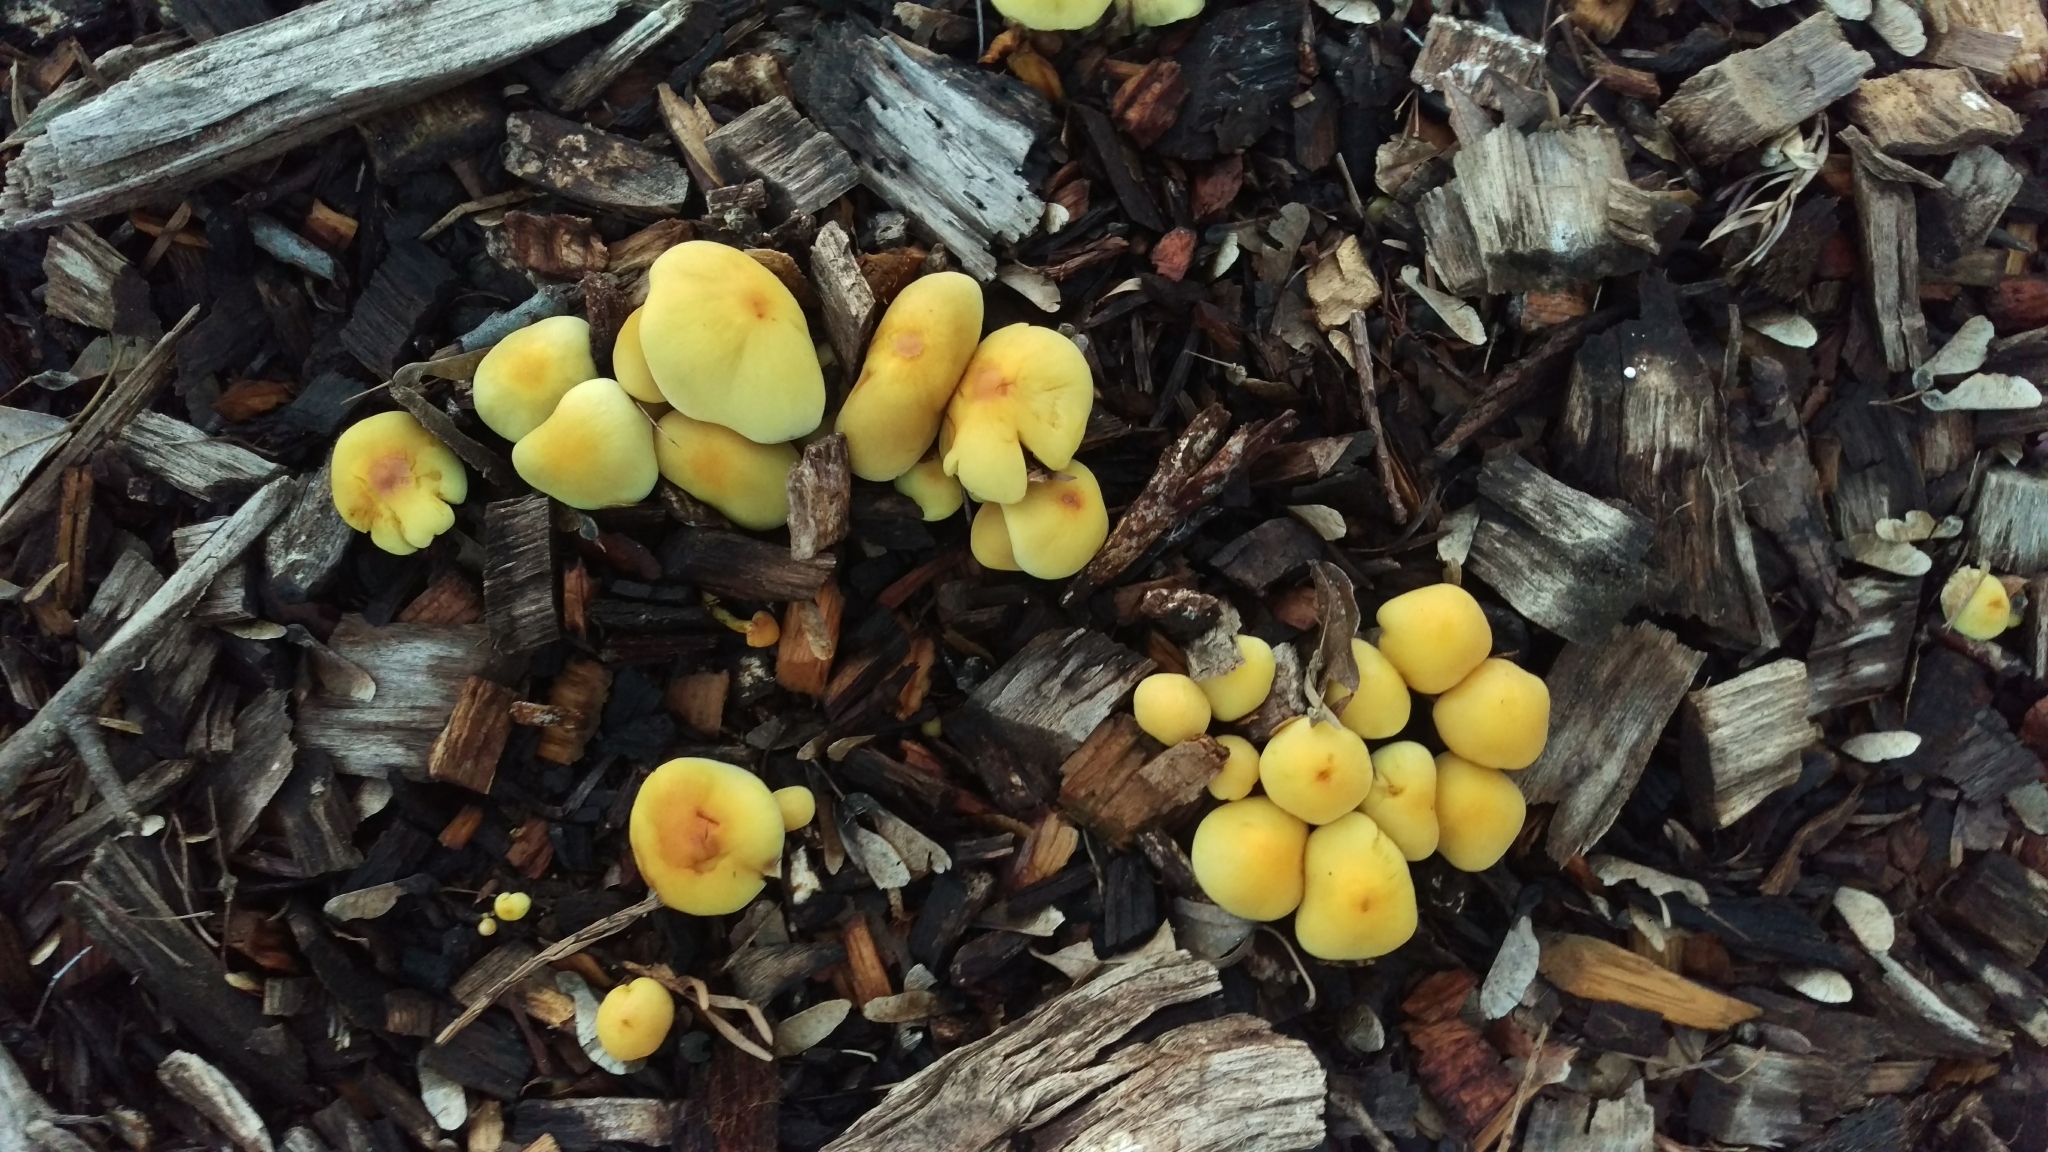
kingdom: Fungi
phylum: Basidiomycota
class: Agaricomycetes
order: Agaricales
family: Strophariaceae
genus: Hypholoma
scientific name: Hypholoma fasciculare
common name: Sulphur tuft
